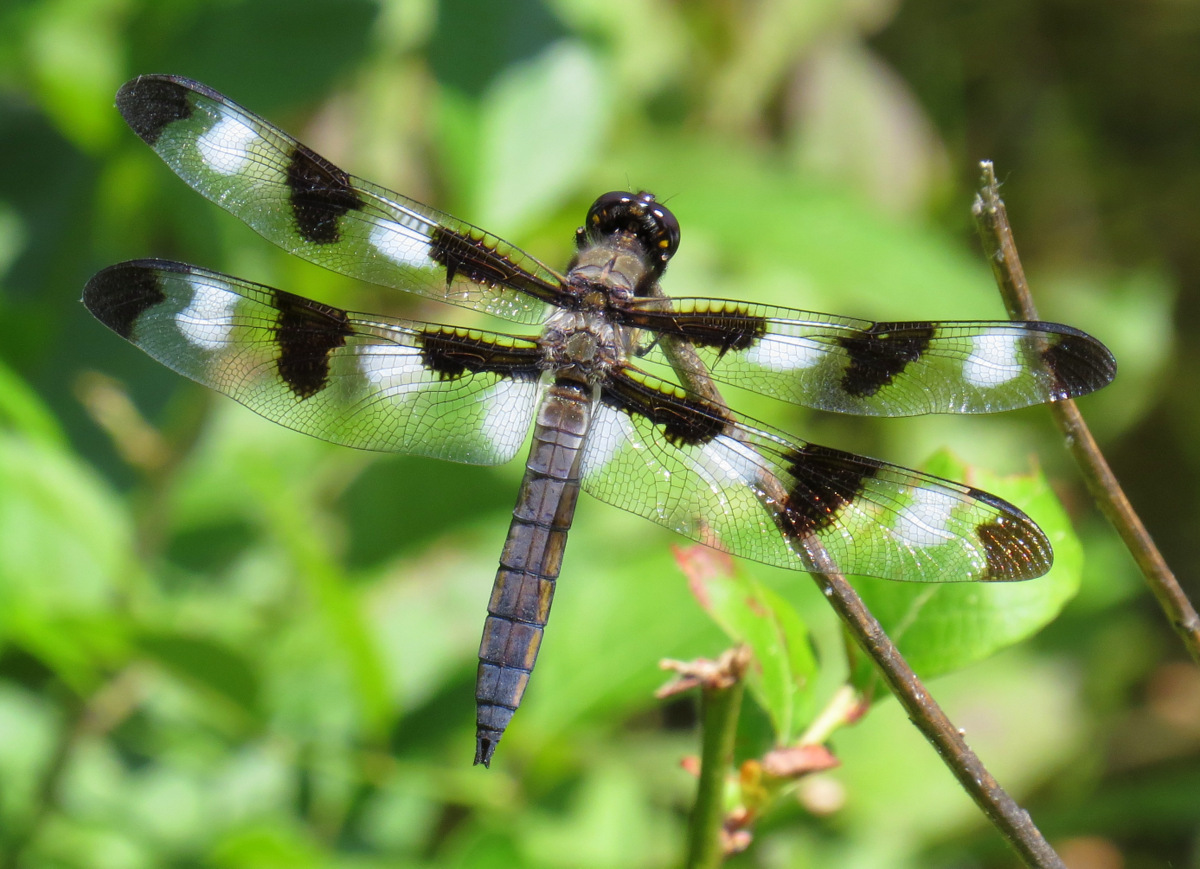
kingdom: Animalia
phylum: Arthropoda
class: Insecta
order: Odonata
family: Libellulidae
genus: Libellula
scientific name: Libellula pulchella
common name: Twelve-spotted skimmer
